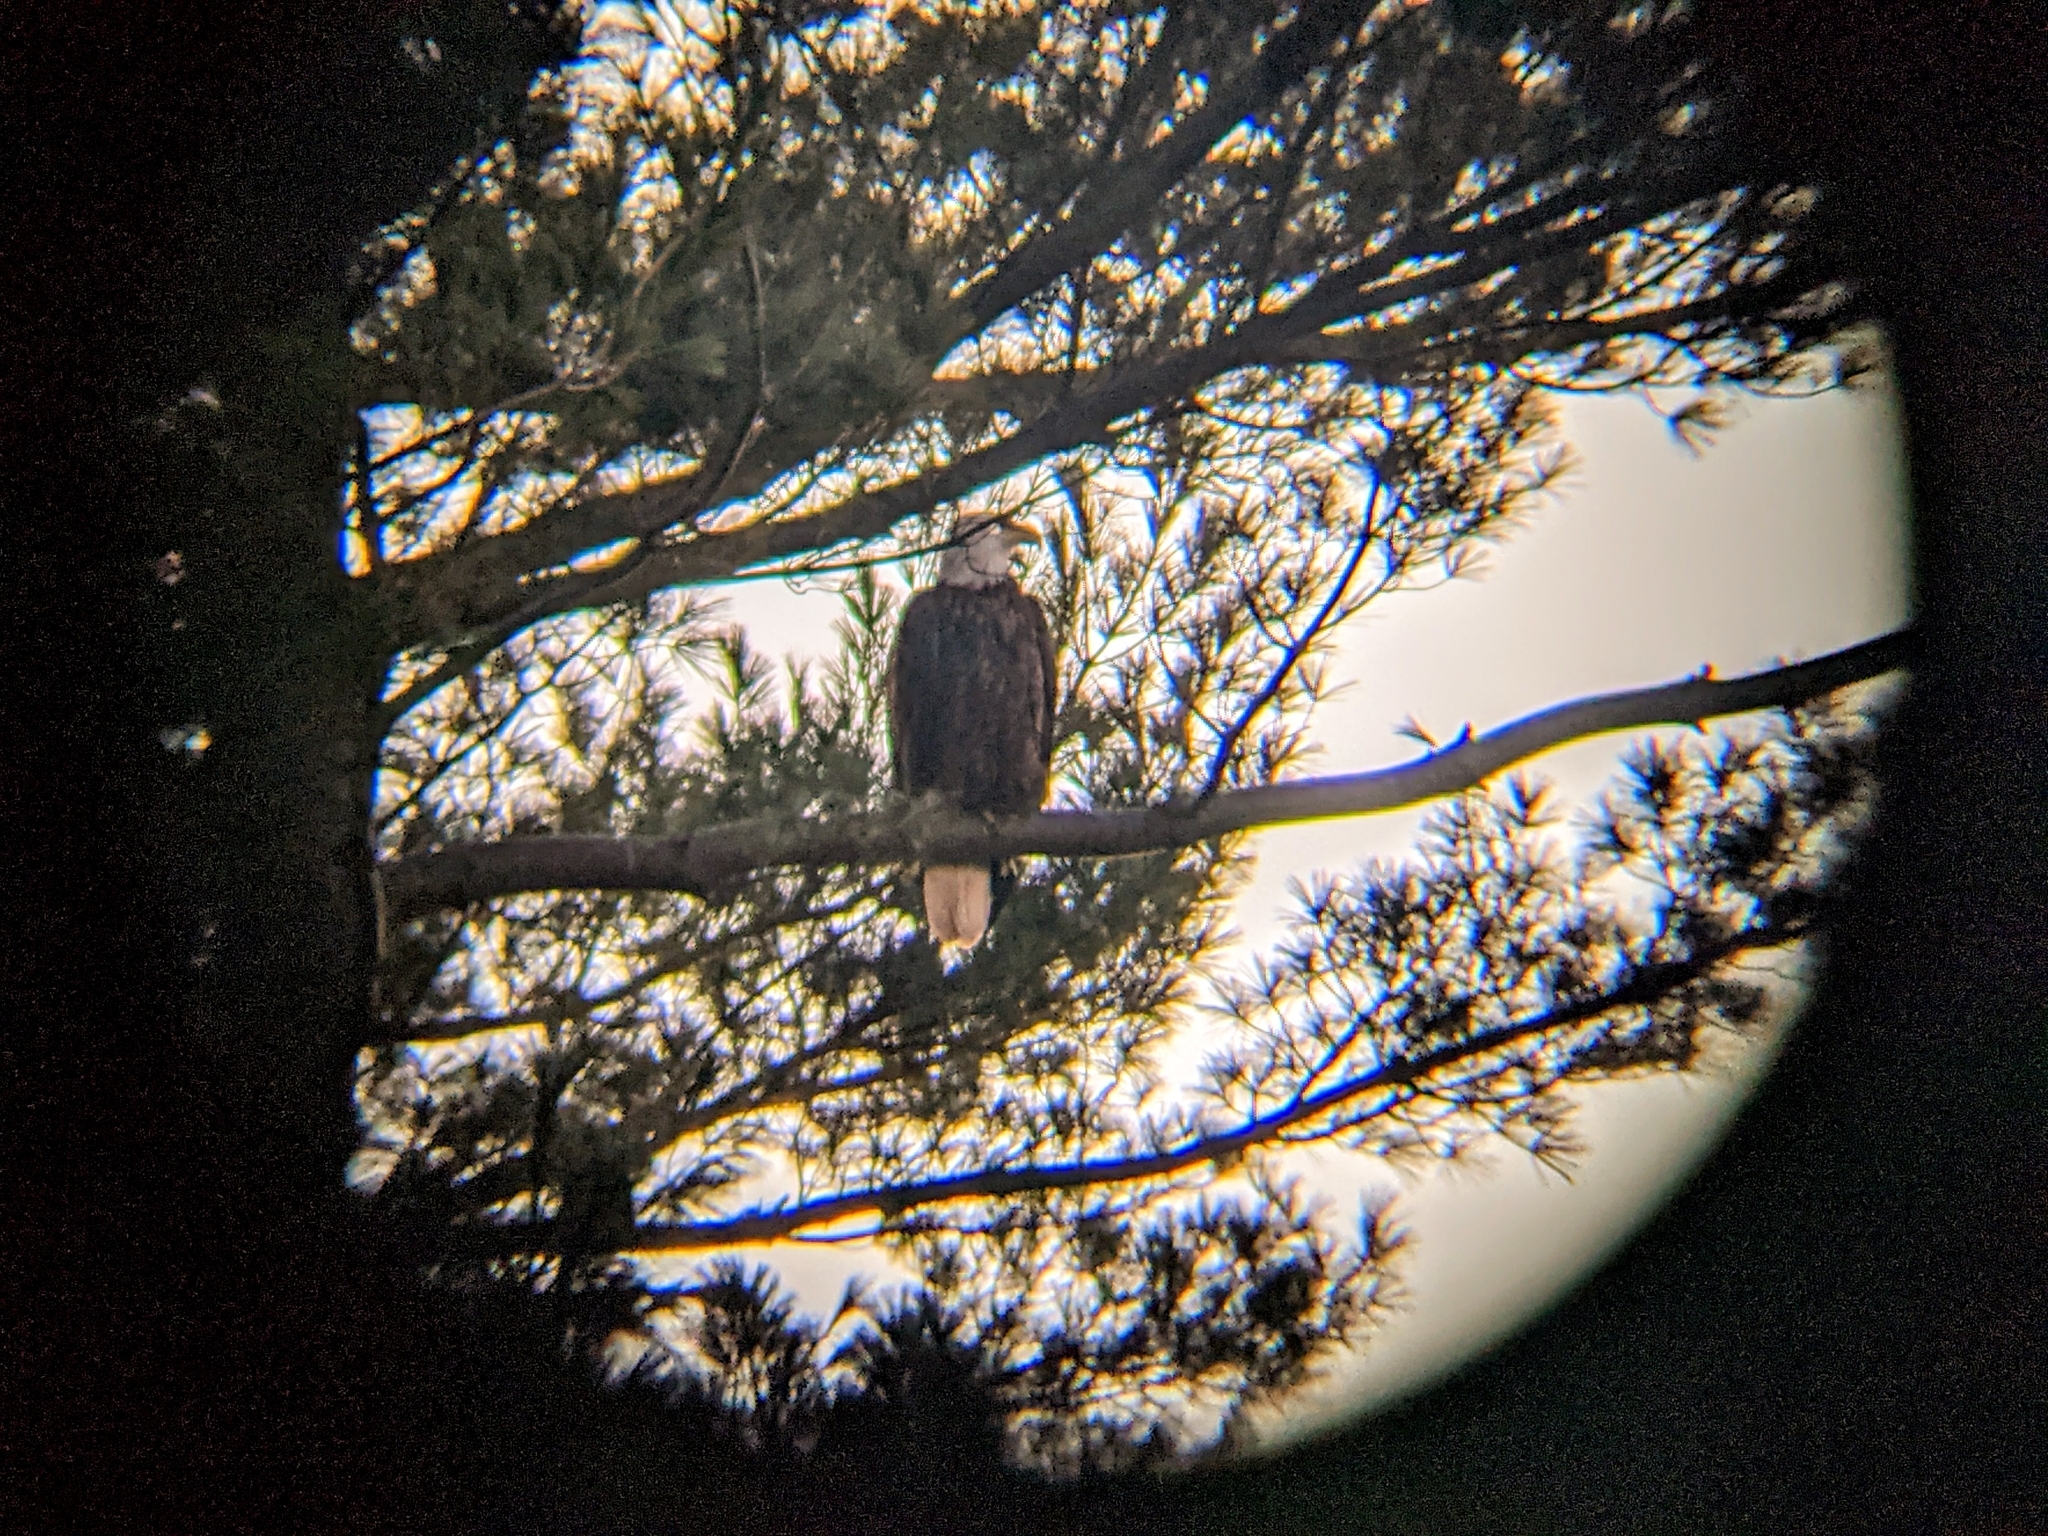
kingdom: Animalia
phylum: Chordata
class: Aves
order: Accipitriformes
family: Accipitridae
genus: Haliaeetus
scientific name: Haliaeetus leucocephalus
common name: Bald eagle
